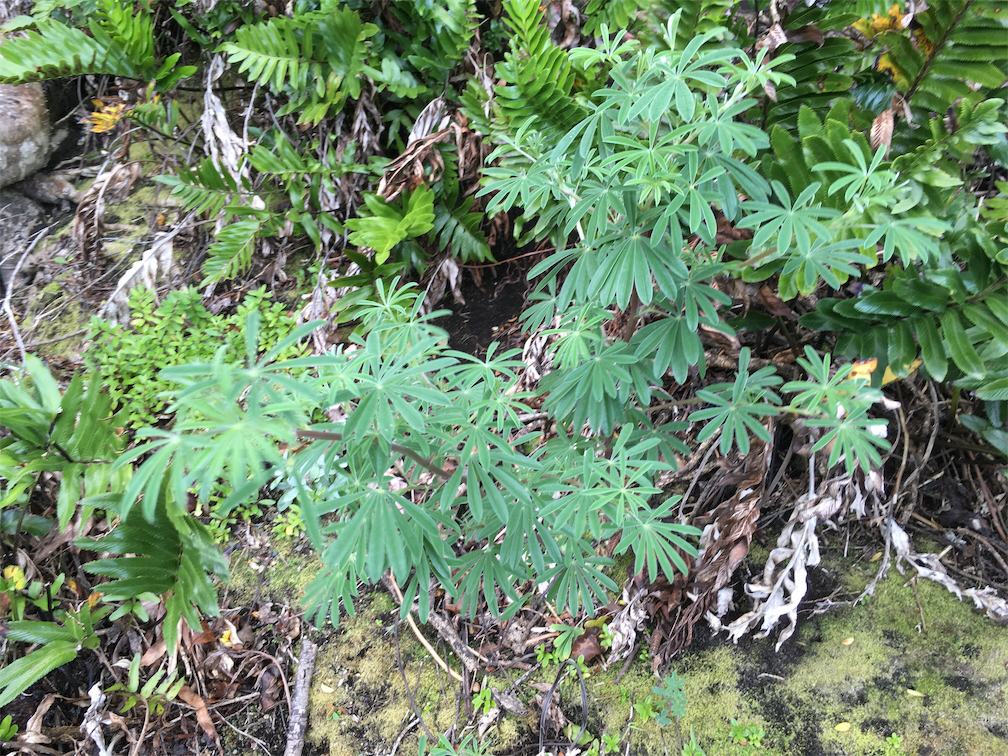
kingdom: Plantae
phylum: Tracheophyta
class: Magnoliopsida
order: Fabales
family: Fabaceae
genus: Lupinus
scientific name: Lupinus arboreus
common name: Yellow bush lupine
